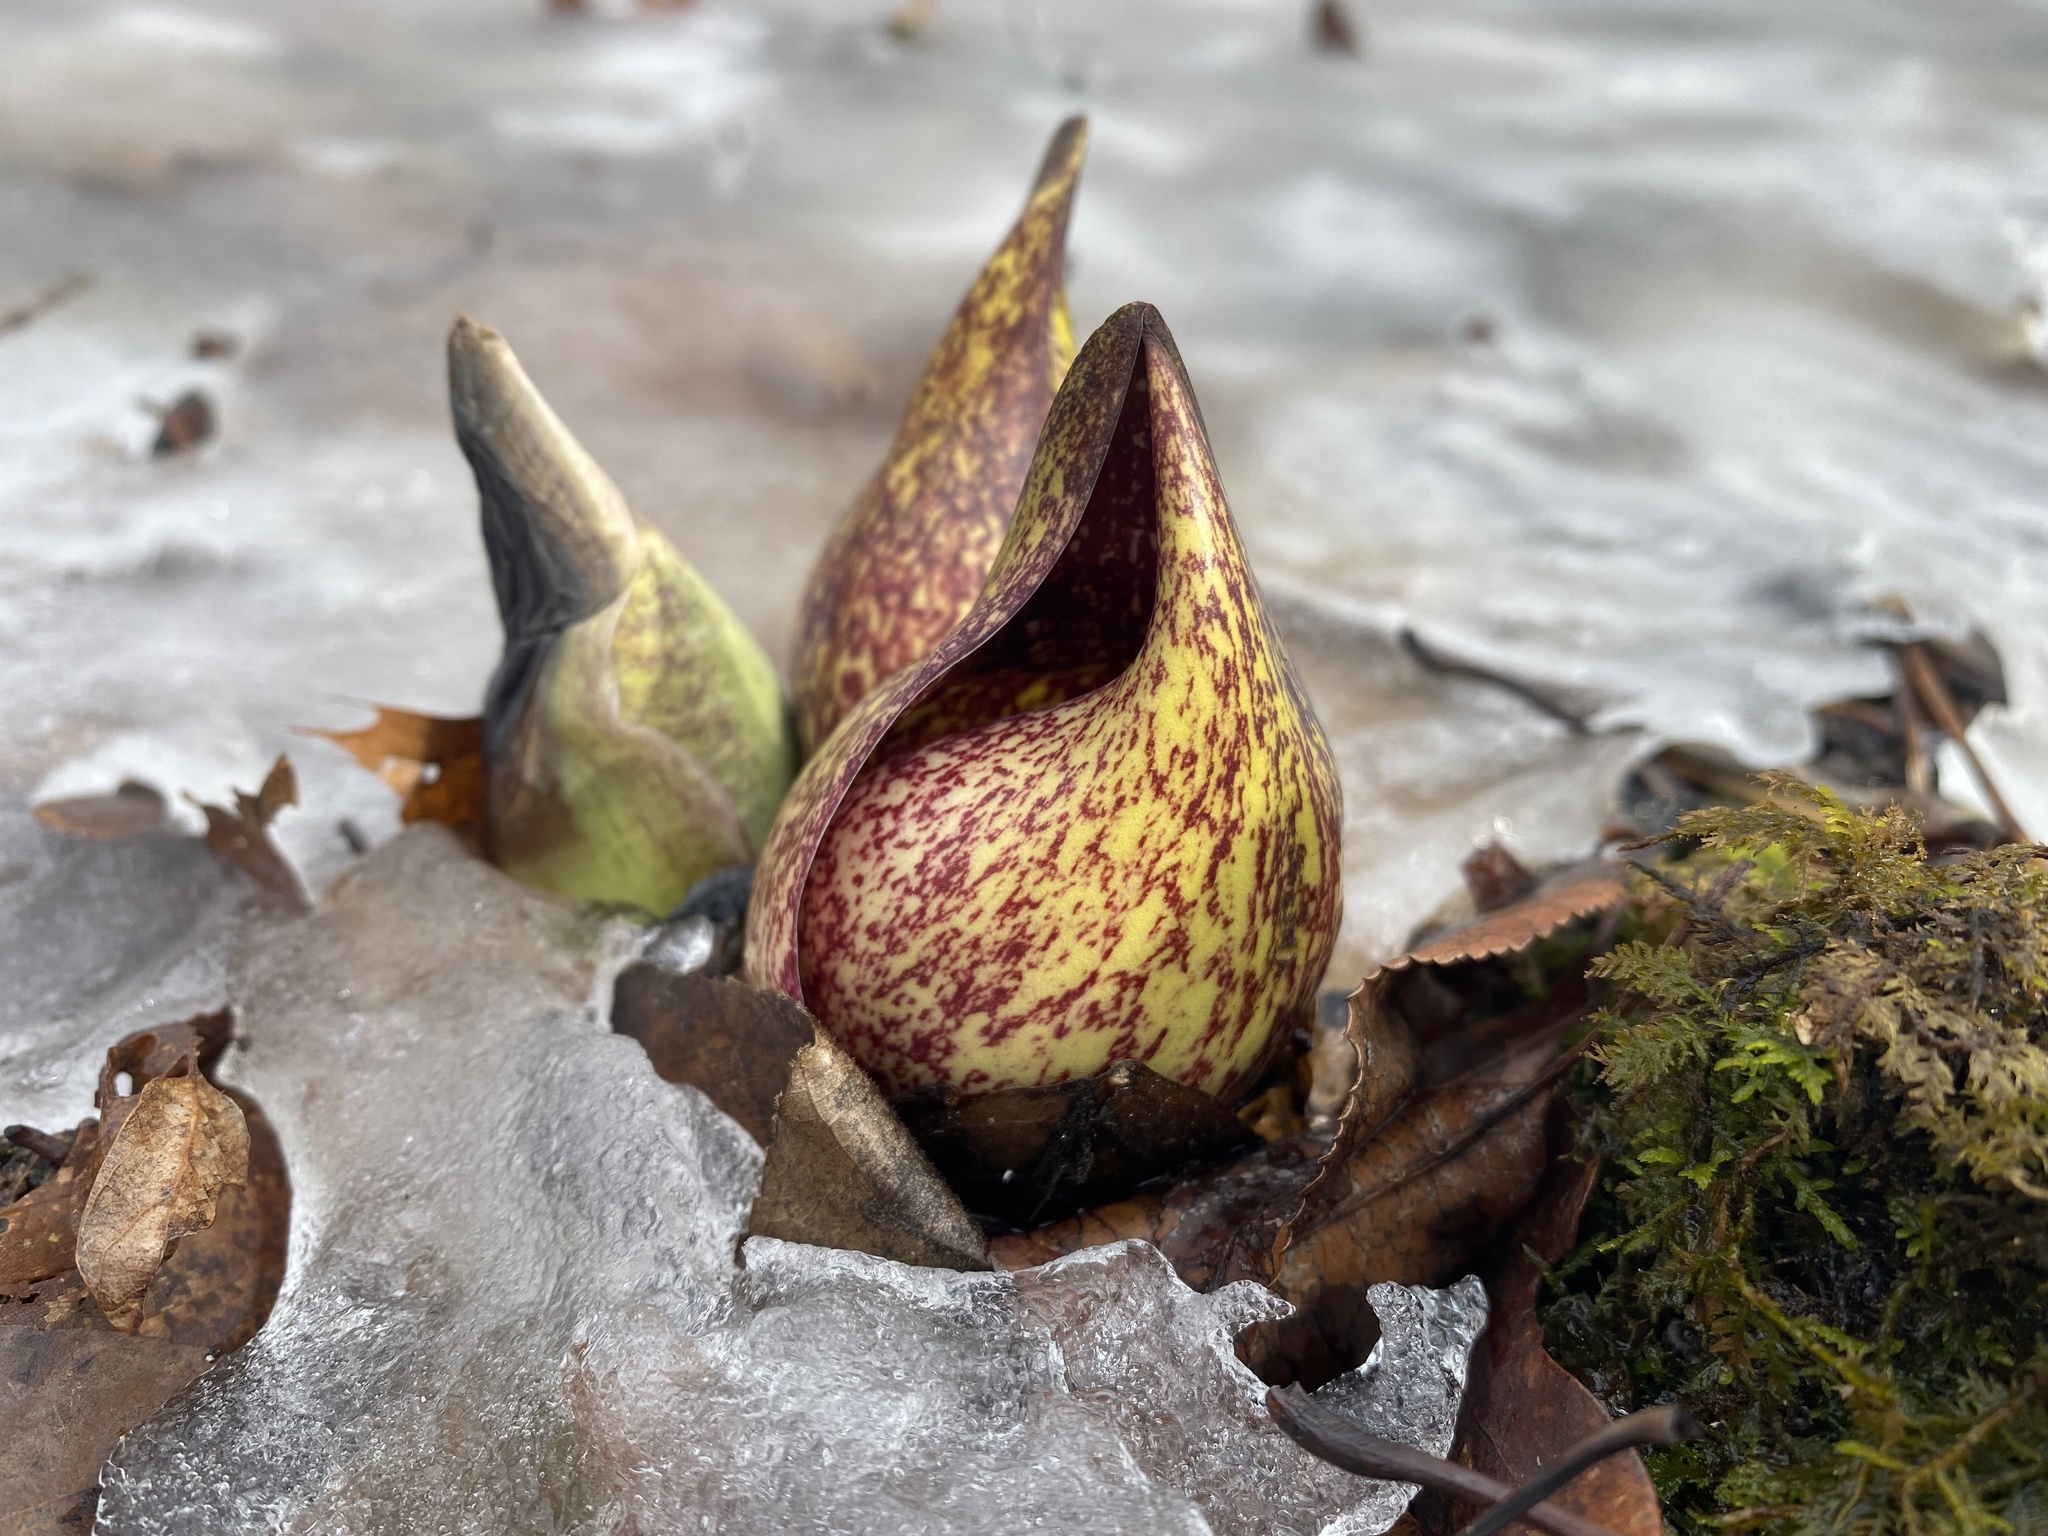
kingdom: Plantae
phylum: Tracheophyta
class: Liliopsida
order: Alismatales
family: Araceae
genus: Symplocarpus
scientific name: Symplocarpus foetidus
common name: Eastern skunk cabbage
